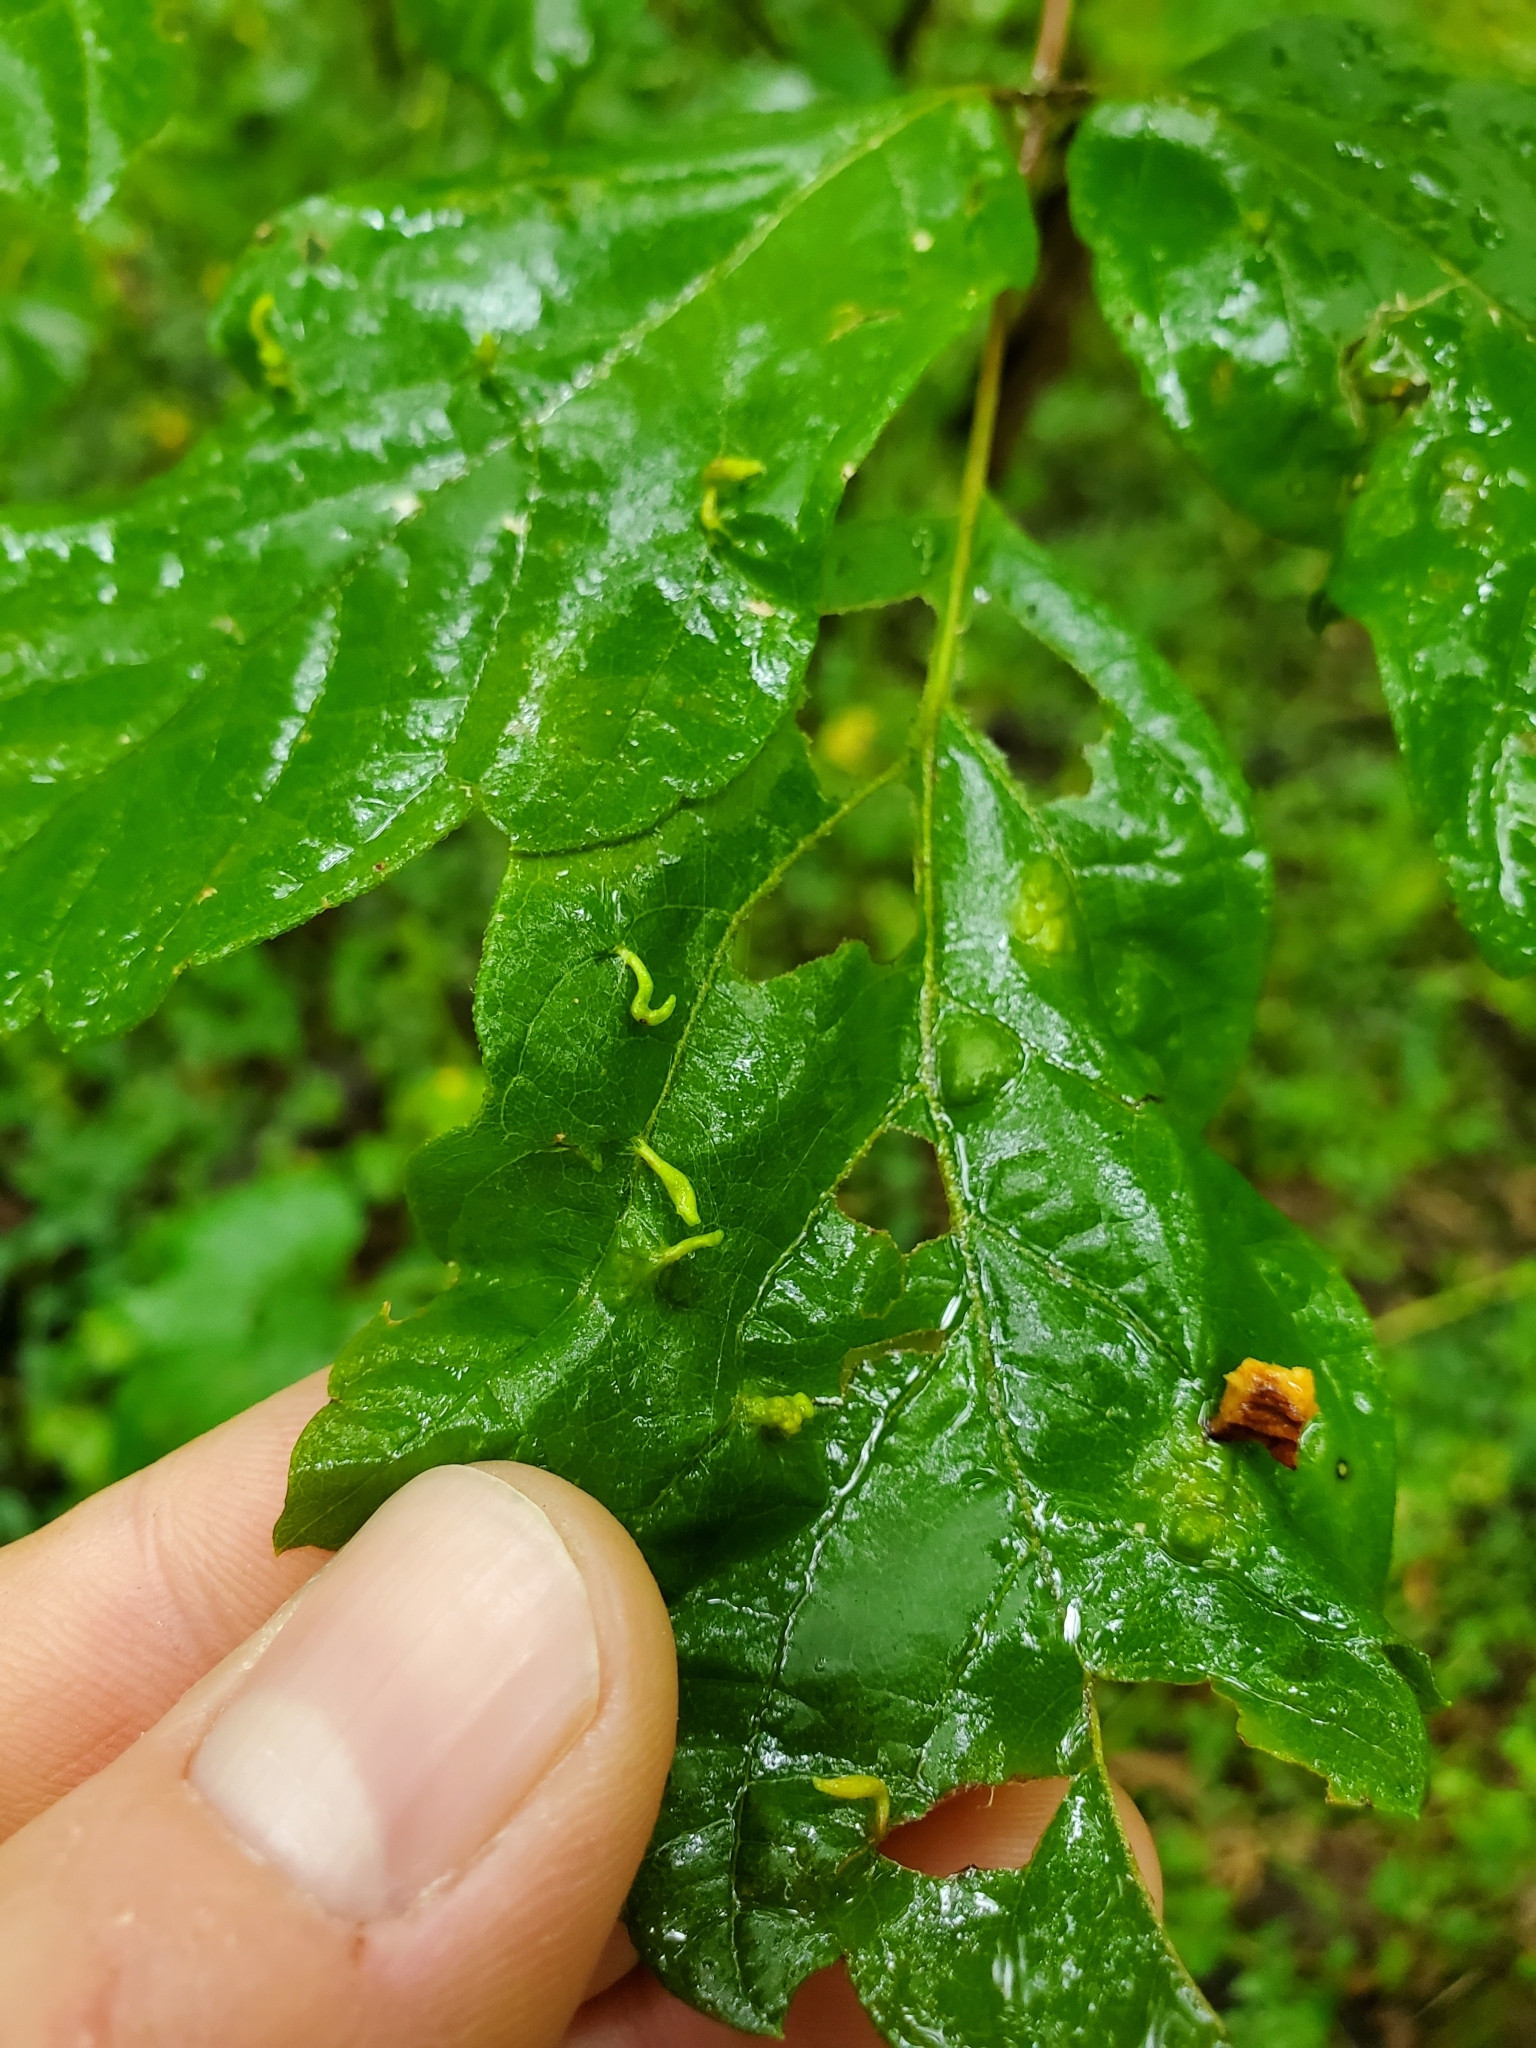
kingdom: Animalia
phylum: Arthropoda
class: Arachnida
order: Trombidiformes
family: Eriophyidae
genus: Aceria
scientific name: Aceria
